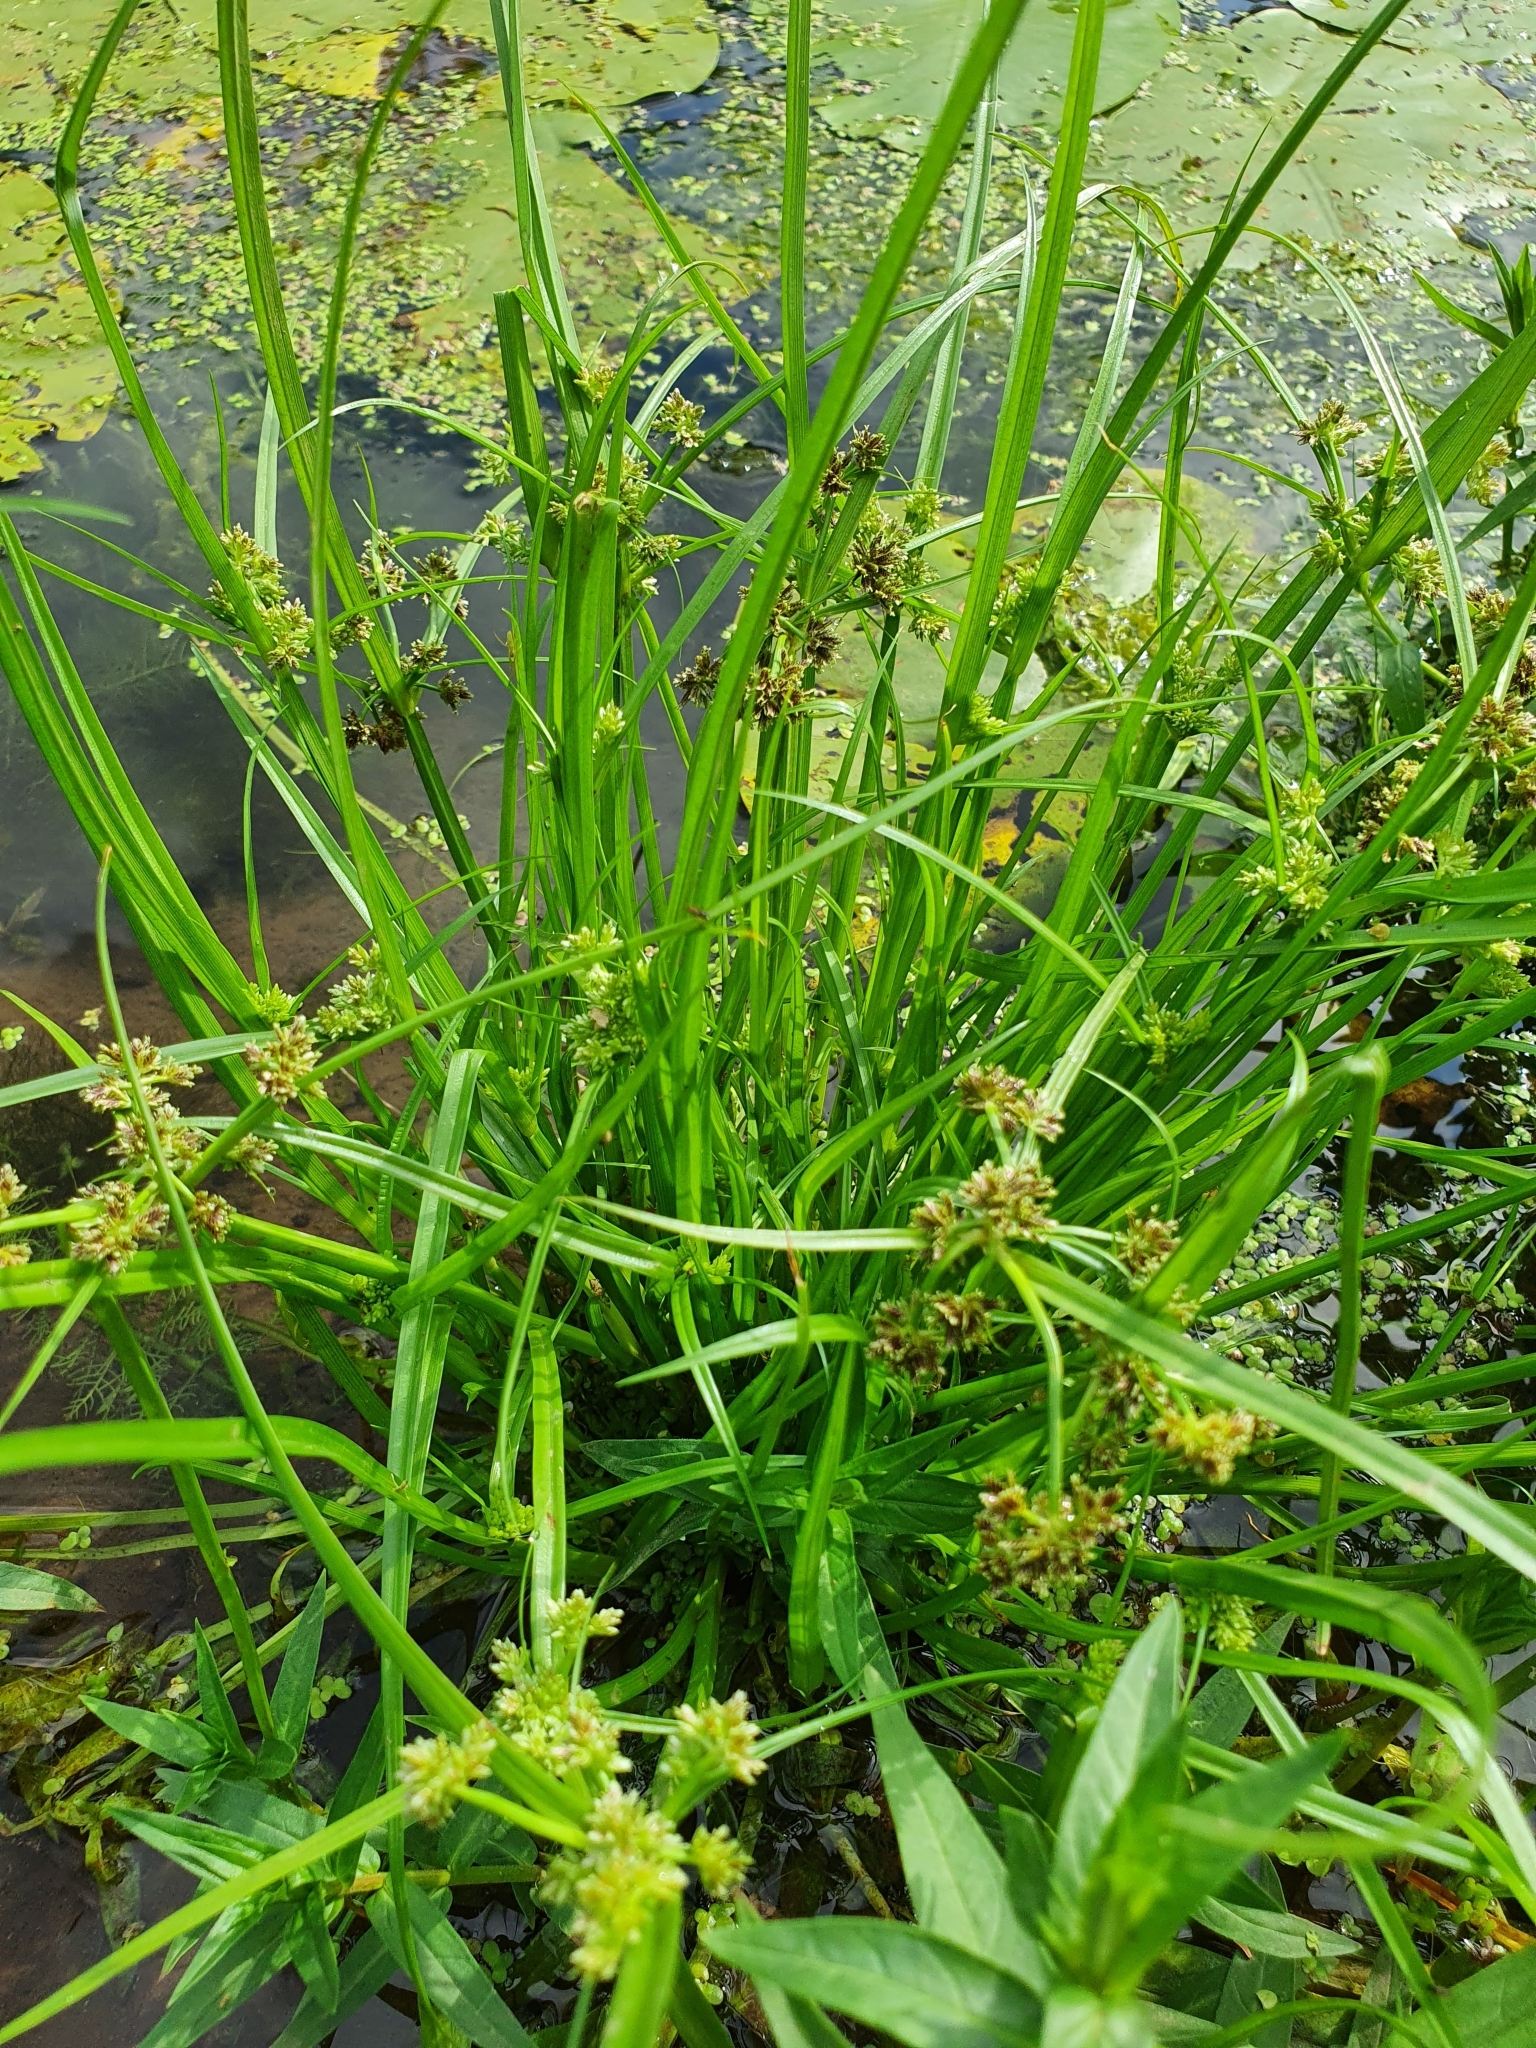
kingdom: Plantae
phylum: Tracheophyta
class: Liliopsida
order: Poales
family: Cyperaceae
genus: Cyperus
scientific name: Cyperus fuscus
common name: Brown galingale
